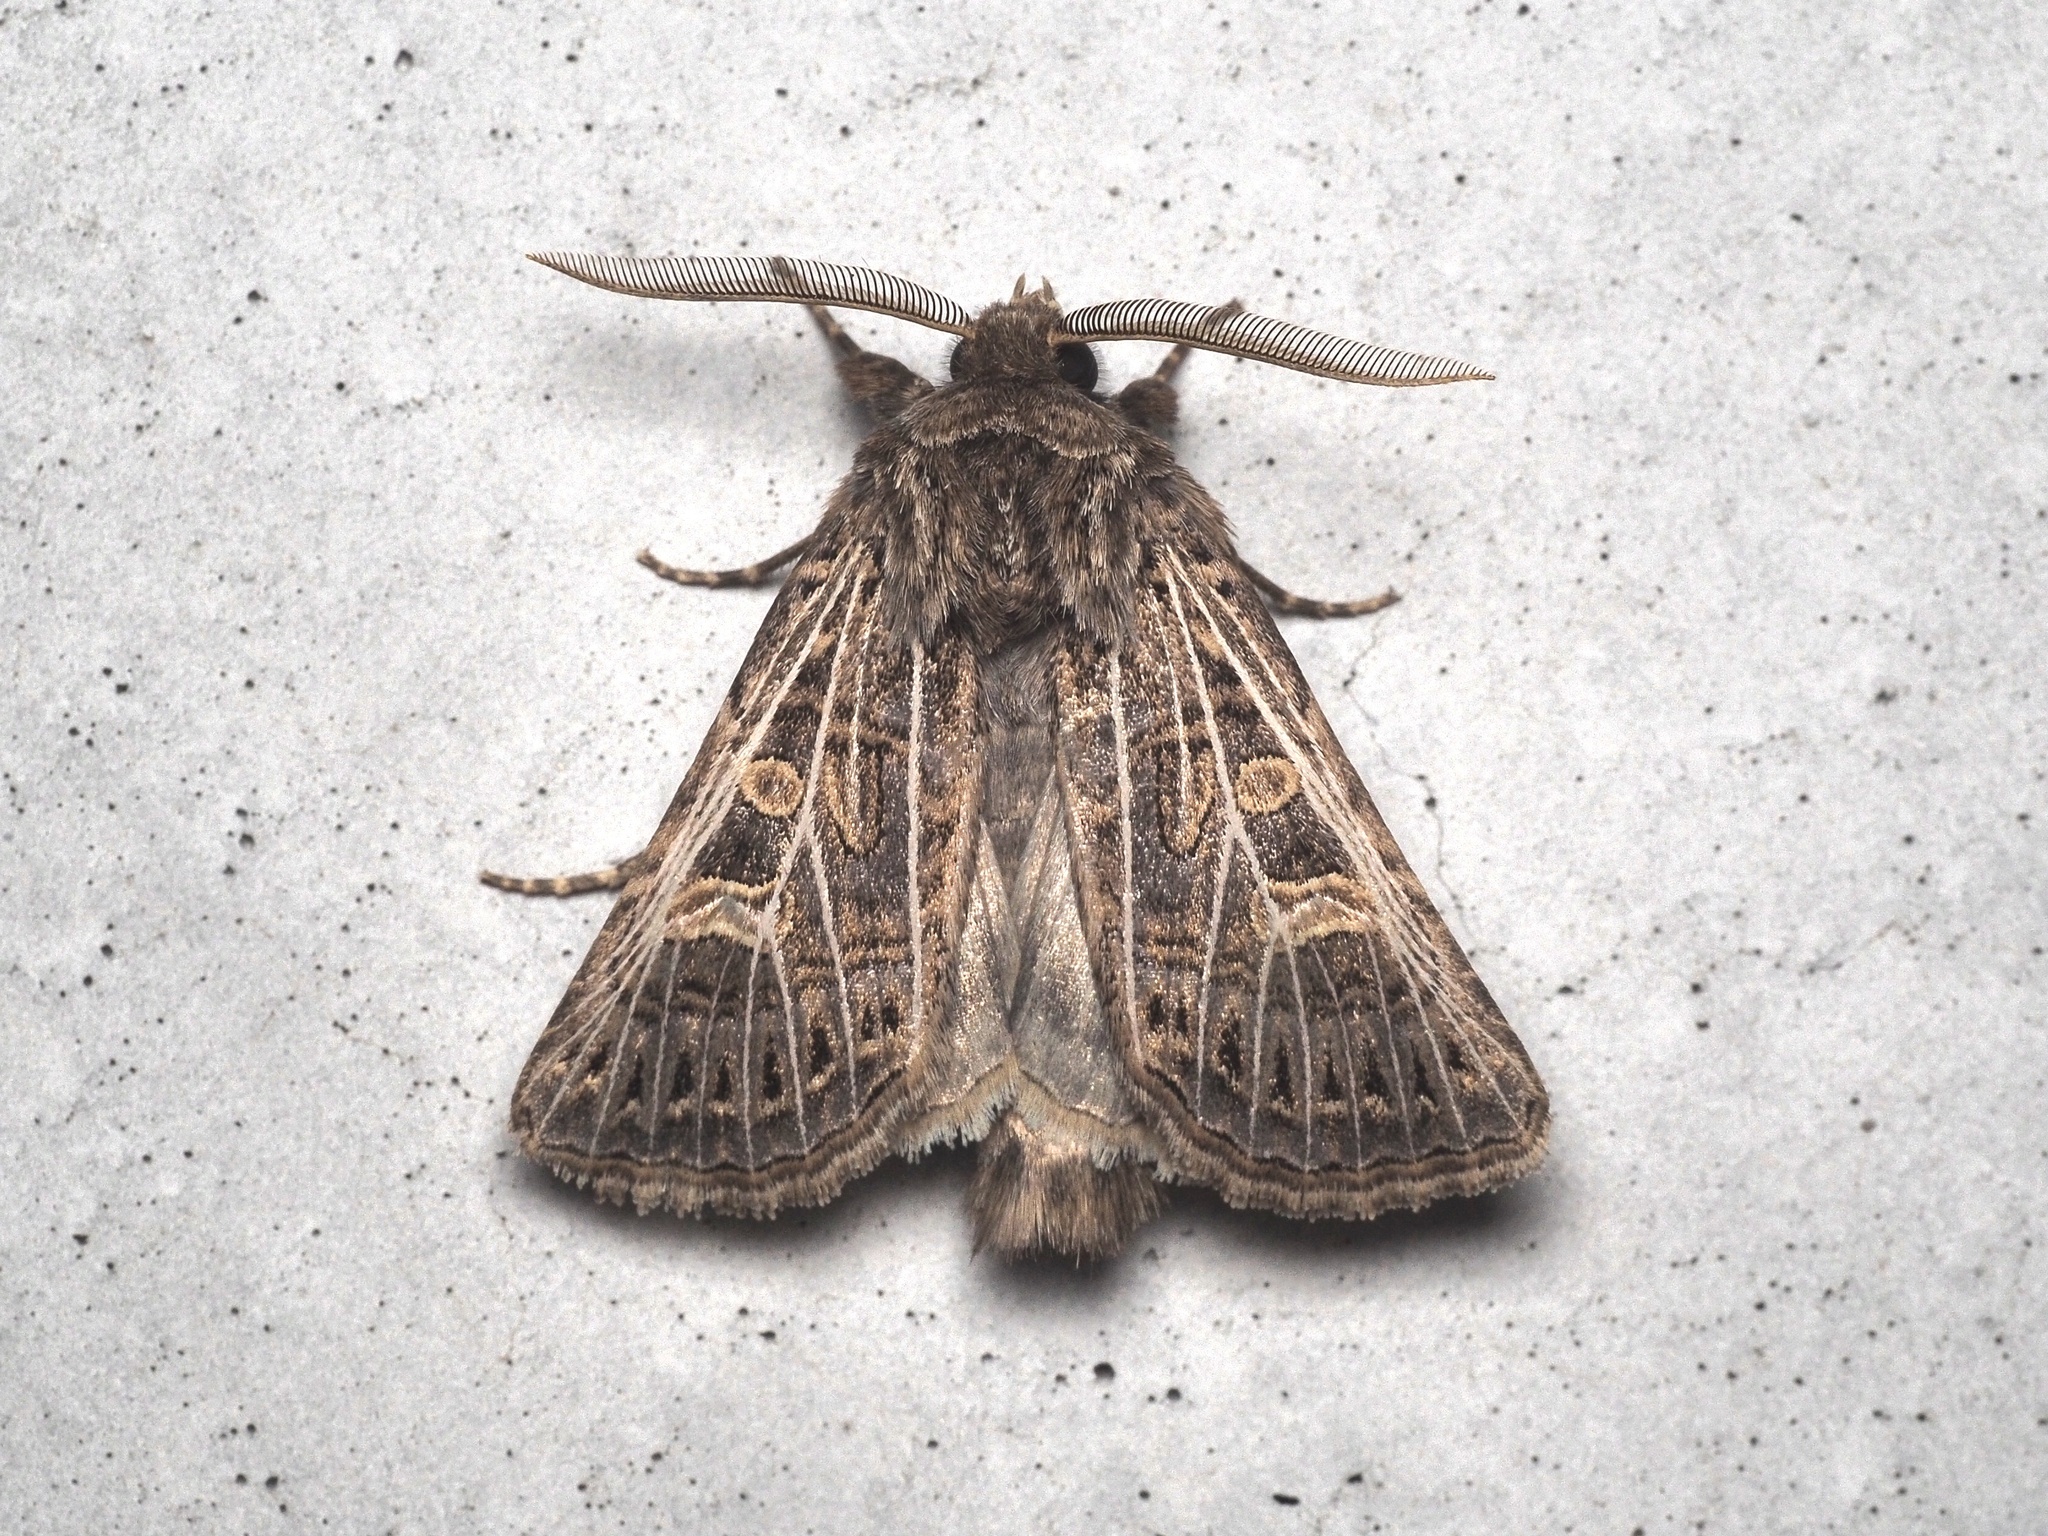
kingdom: Animalia
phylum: Arthropoda
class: Insecta
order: Lepidoptera
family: Noctuidae
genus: Tholera
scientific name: Tholera decimalis
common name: Feathered gothic
